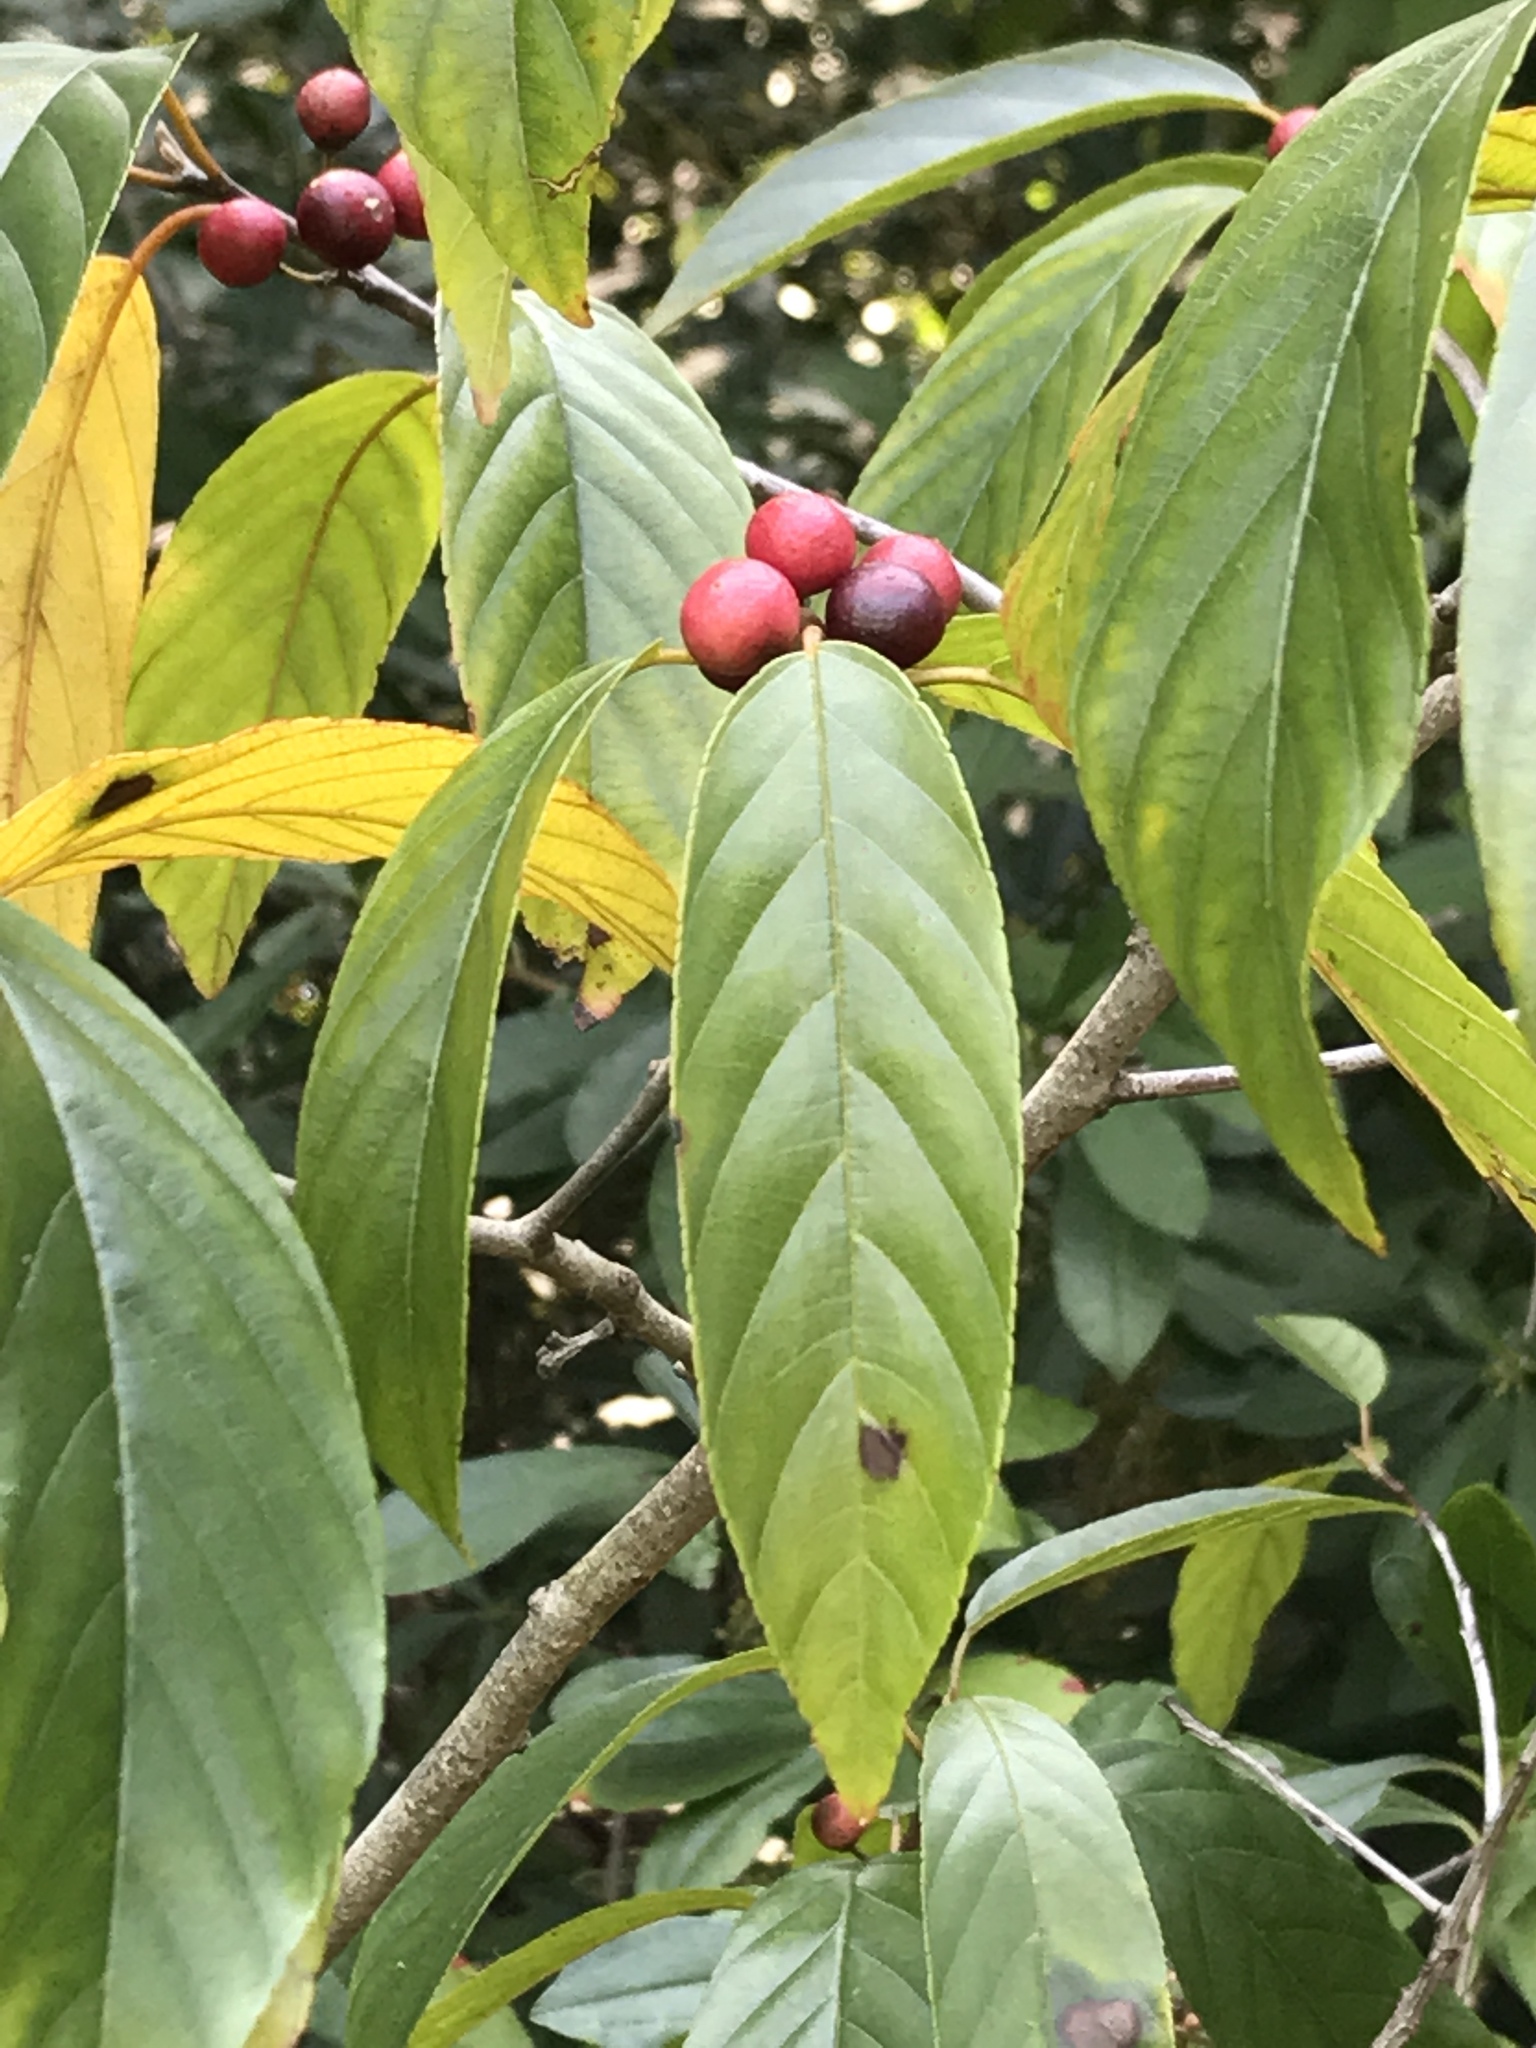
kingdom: Plantae
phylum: Tracheophyta
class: Magnoliopsida
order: Rosales
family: Rhamnaceae
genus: Frangula
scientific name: Frangula caroliniana
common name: Carolina buckthorn
